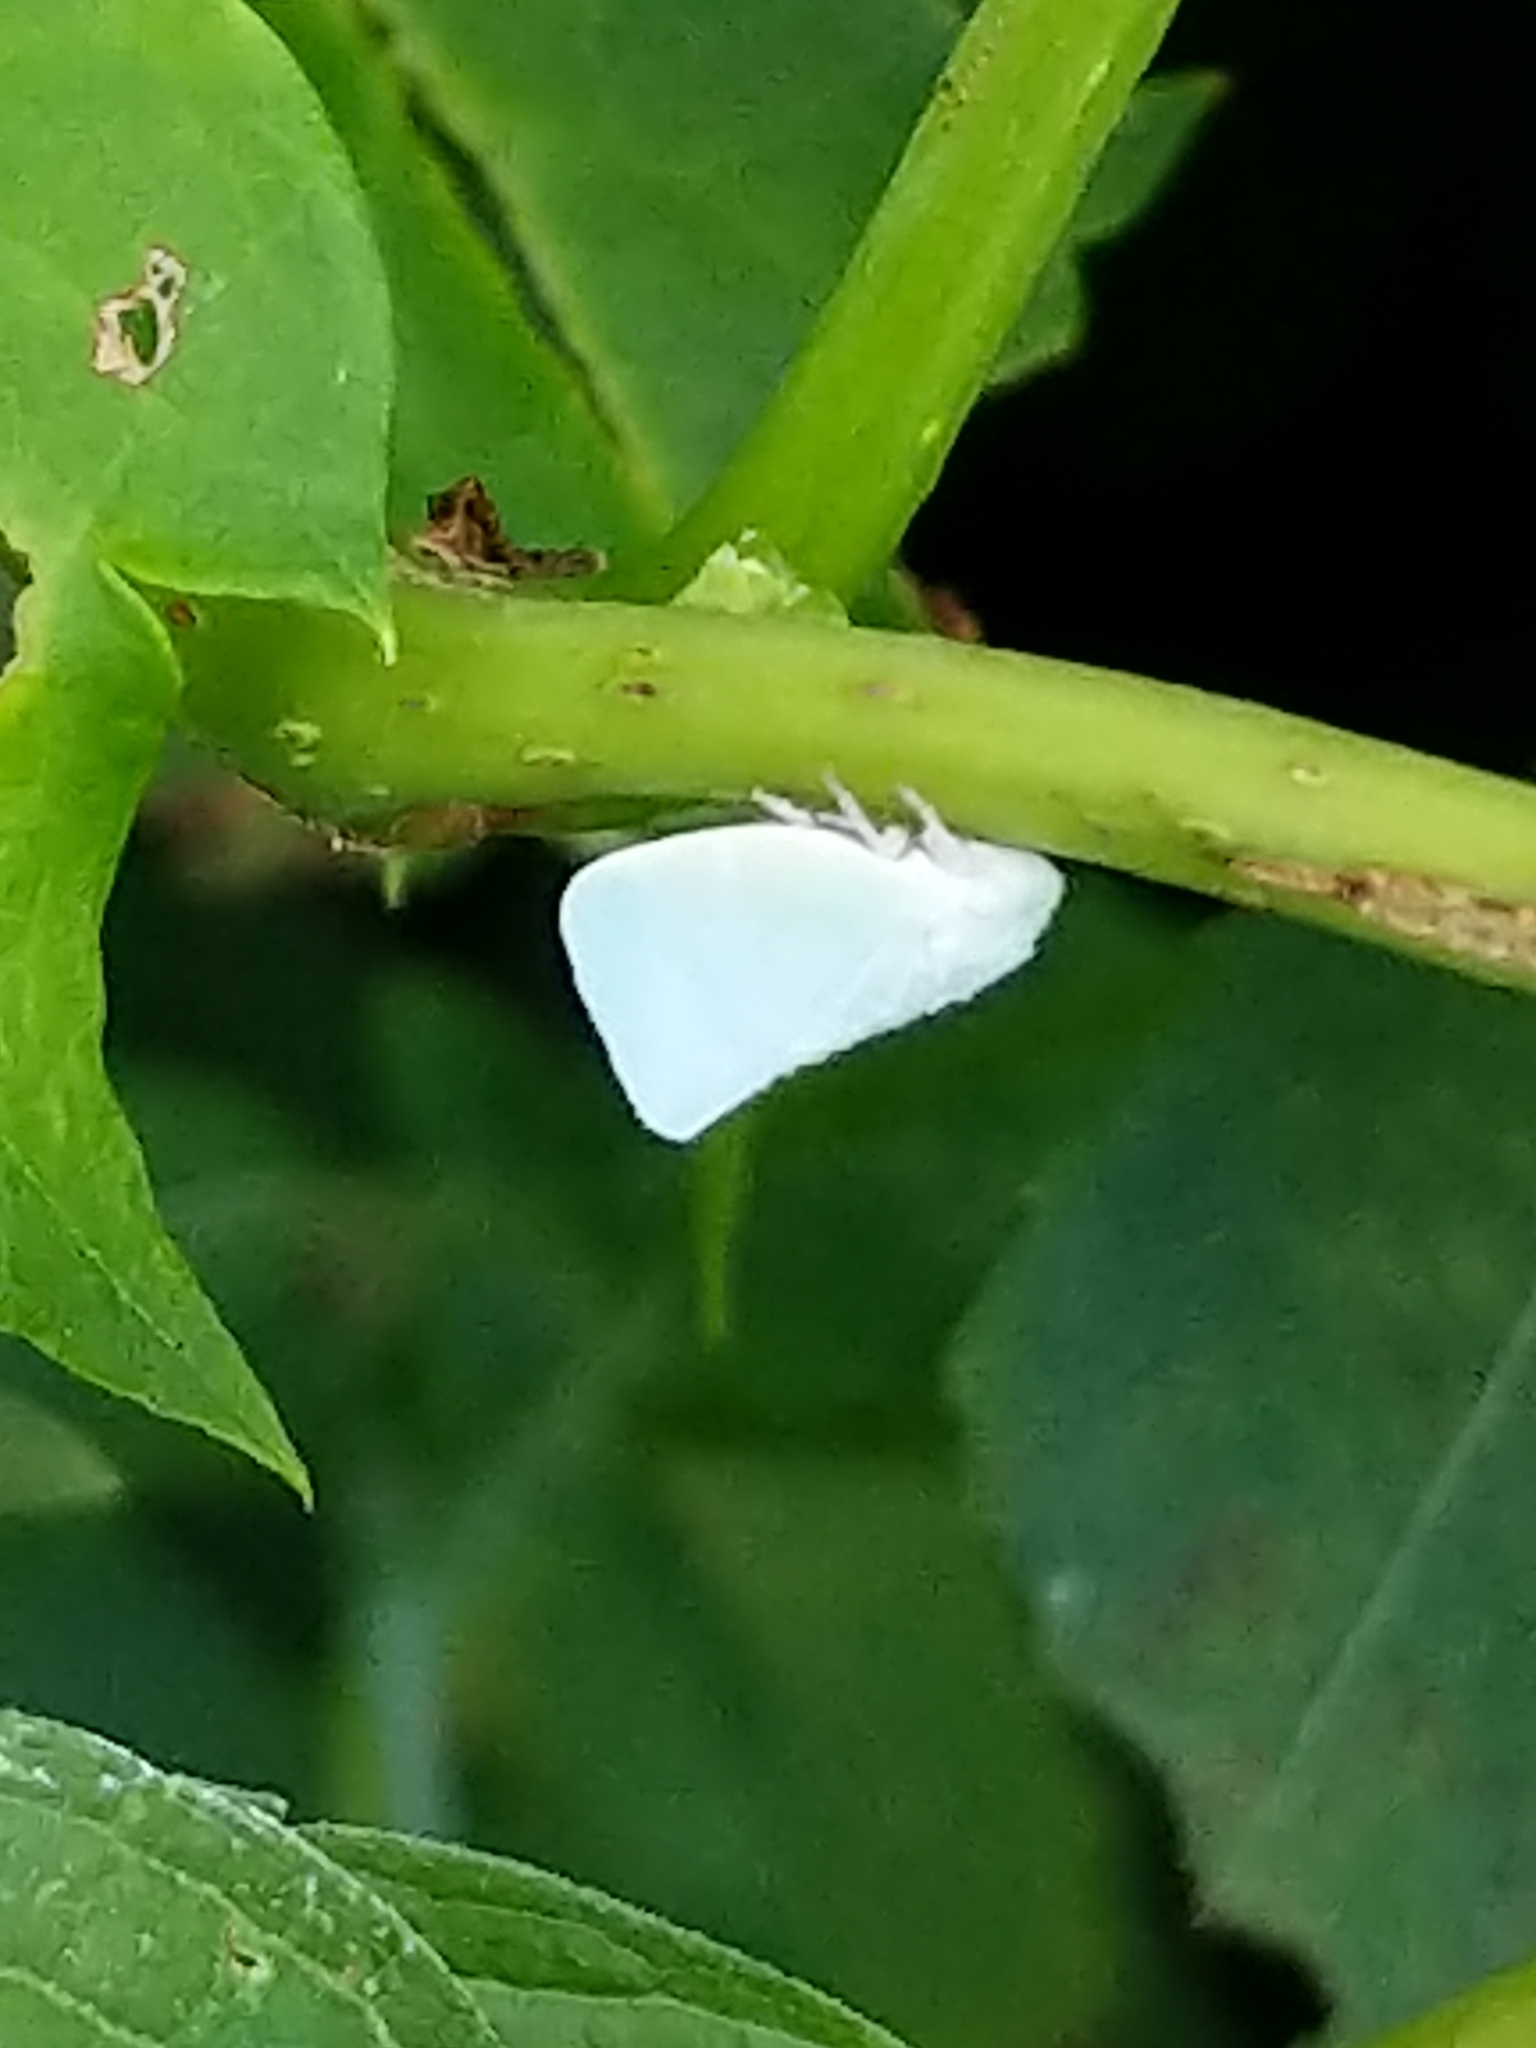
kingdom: Animalia
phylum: Arthropoda
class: Insecta
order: Hemiptera
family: Flatidae
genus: Flatormenis
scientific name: Flatormenis proxima
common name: Northern flatid planthopper
